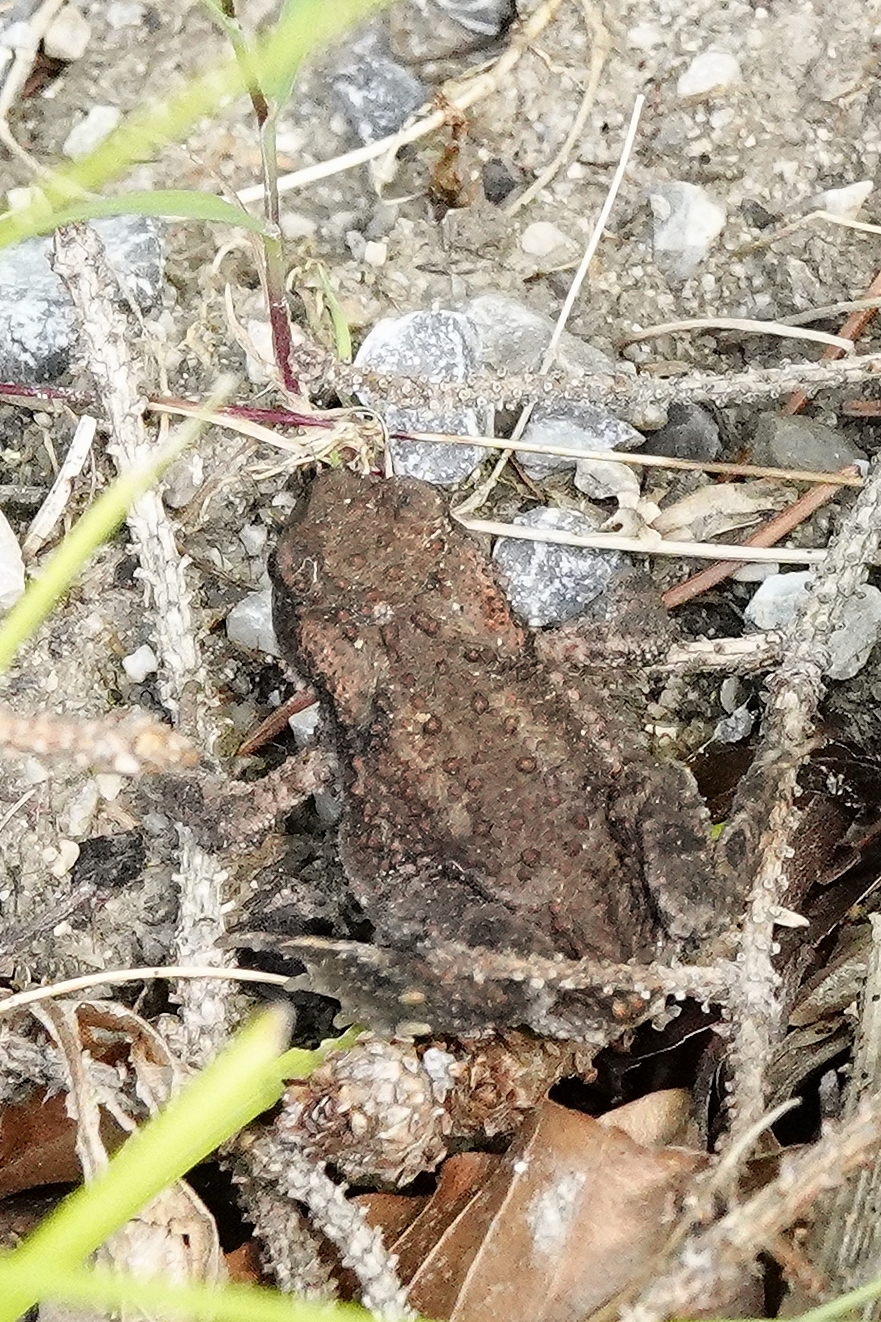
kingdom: Animalia
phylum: Chordata
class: Amphibia
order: Anura
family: Bufonidae
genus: Bufo
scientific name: Bufo bufo
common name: Common toad
